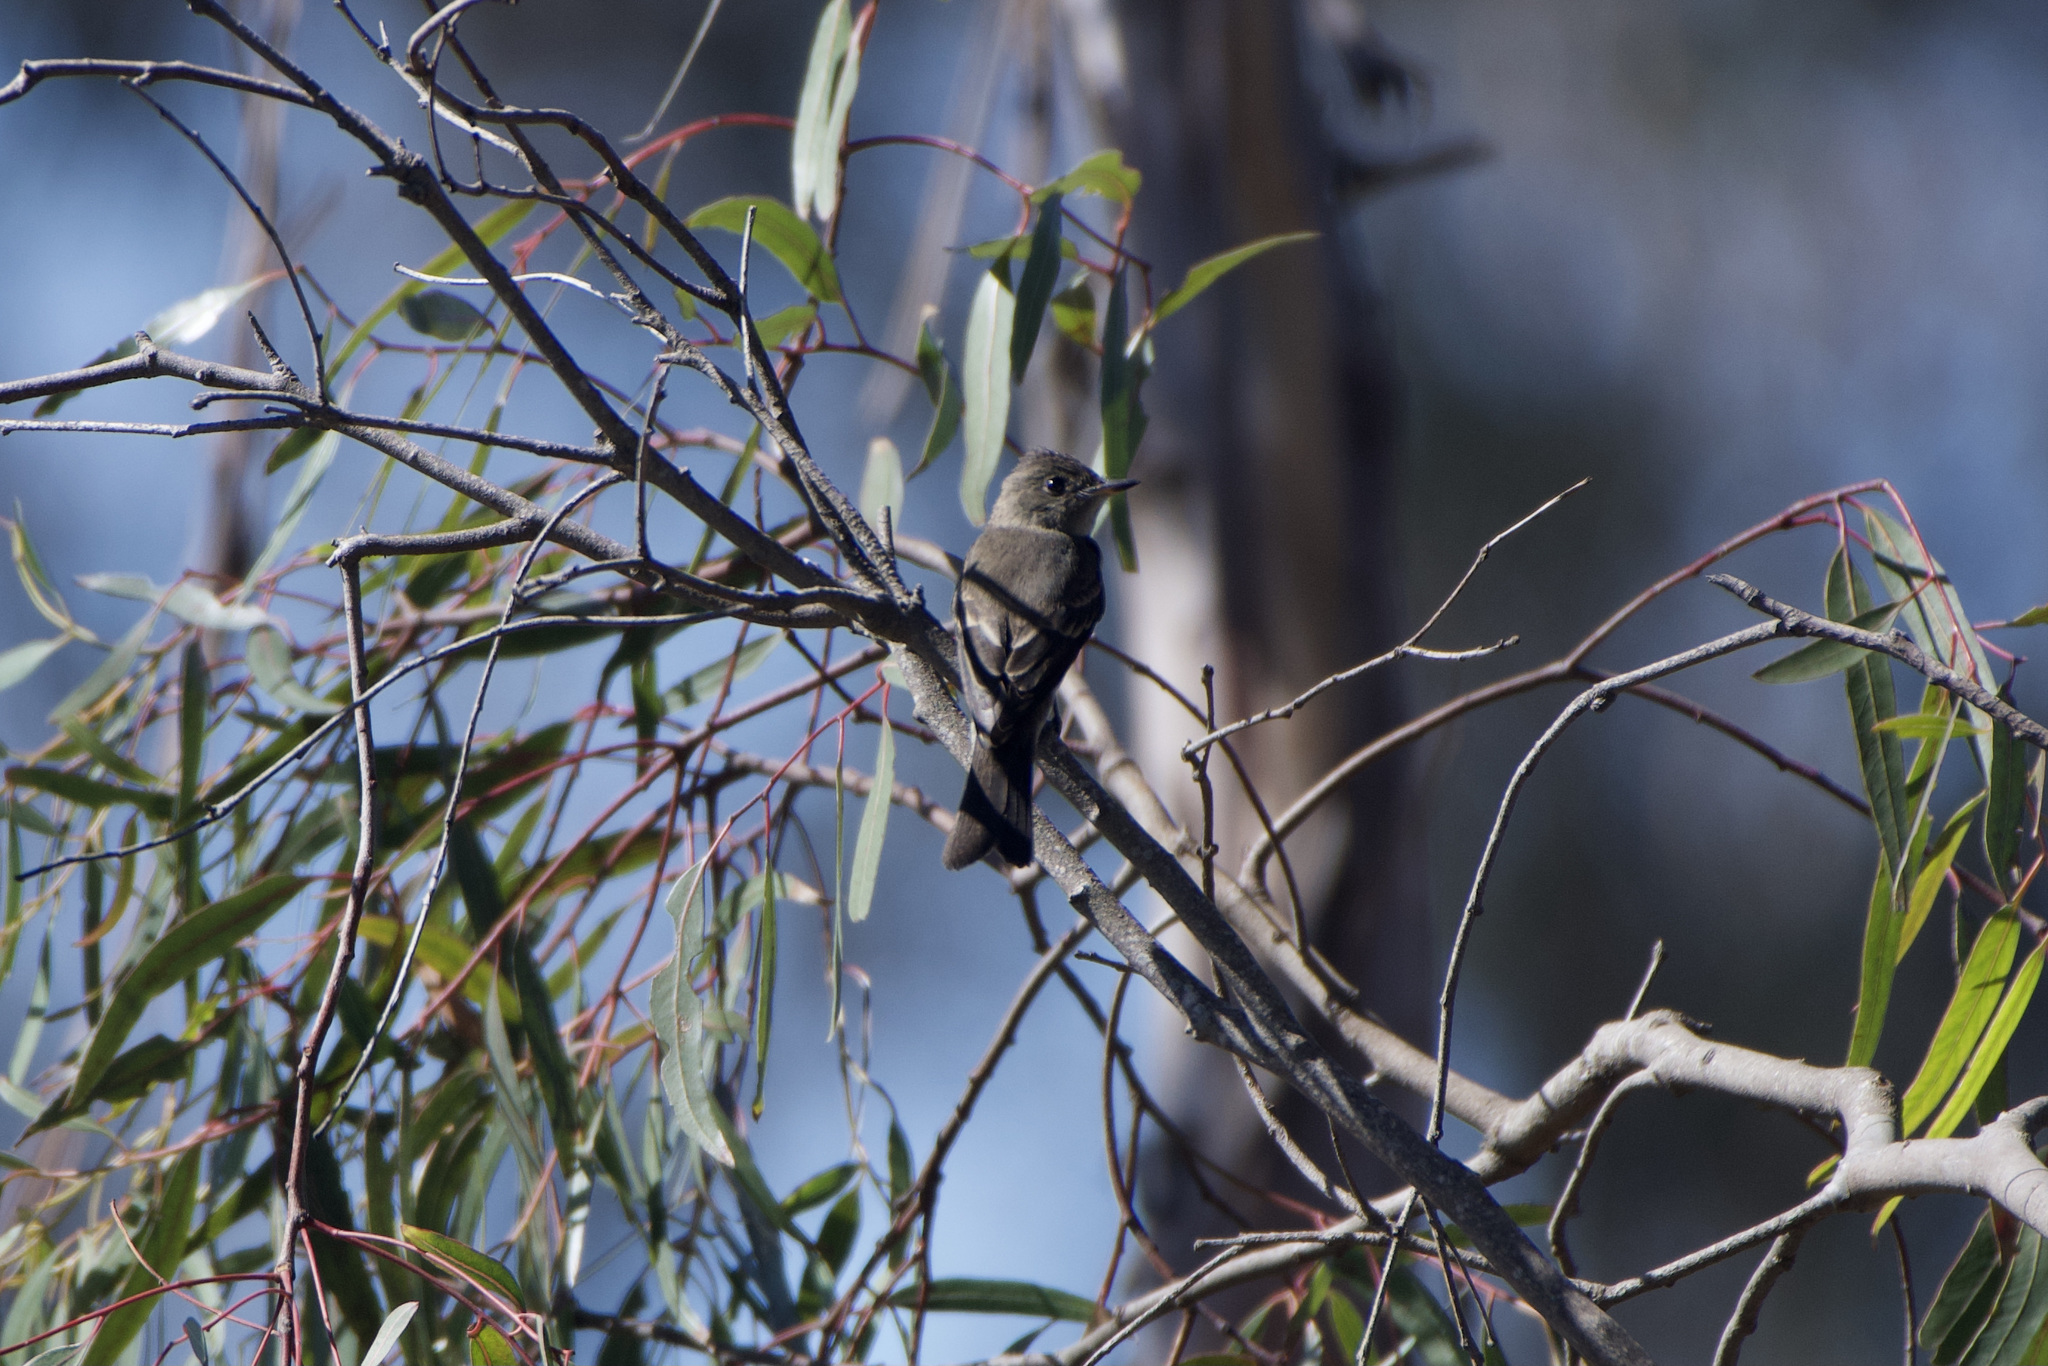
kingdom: Animalia
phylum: Chordata
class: Aves
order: Passeriformes
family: Tyrannidae
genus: Contopus
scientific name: Contopus sordidulus
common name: Western wood-pewee
